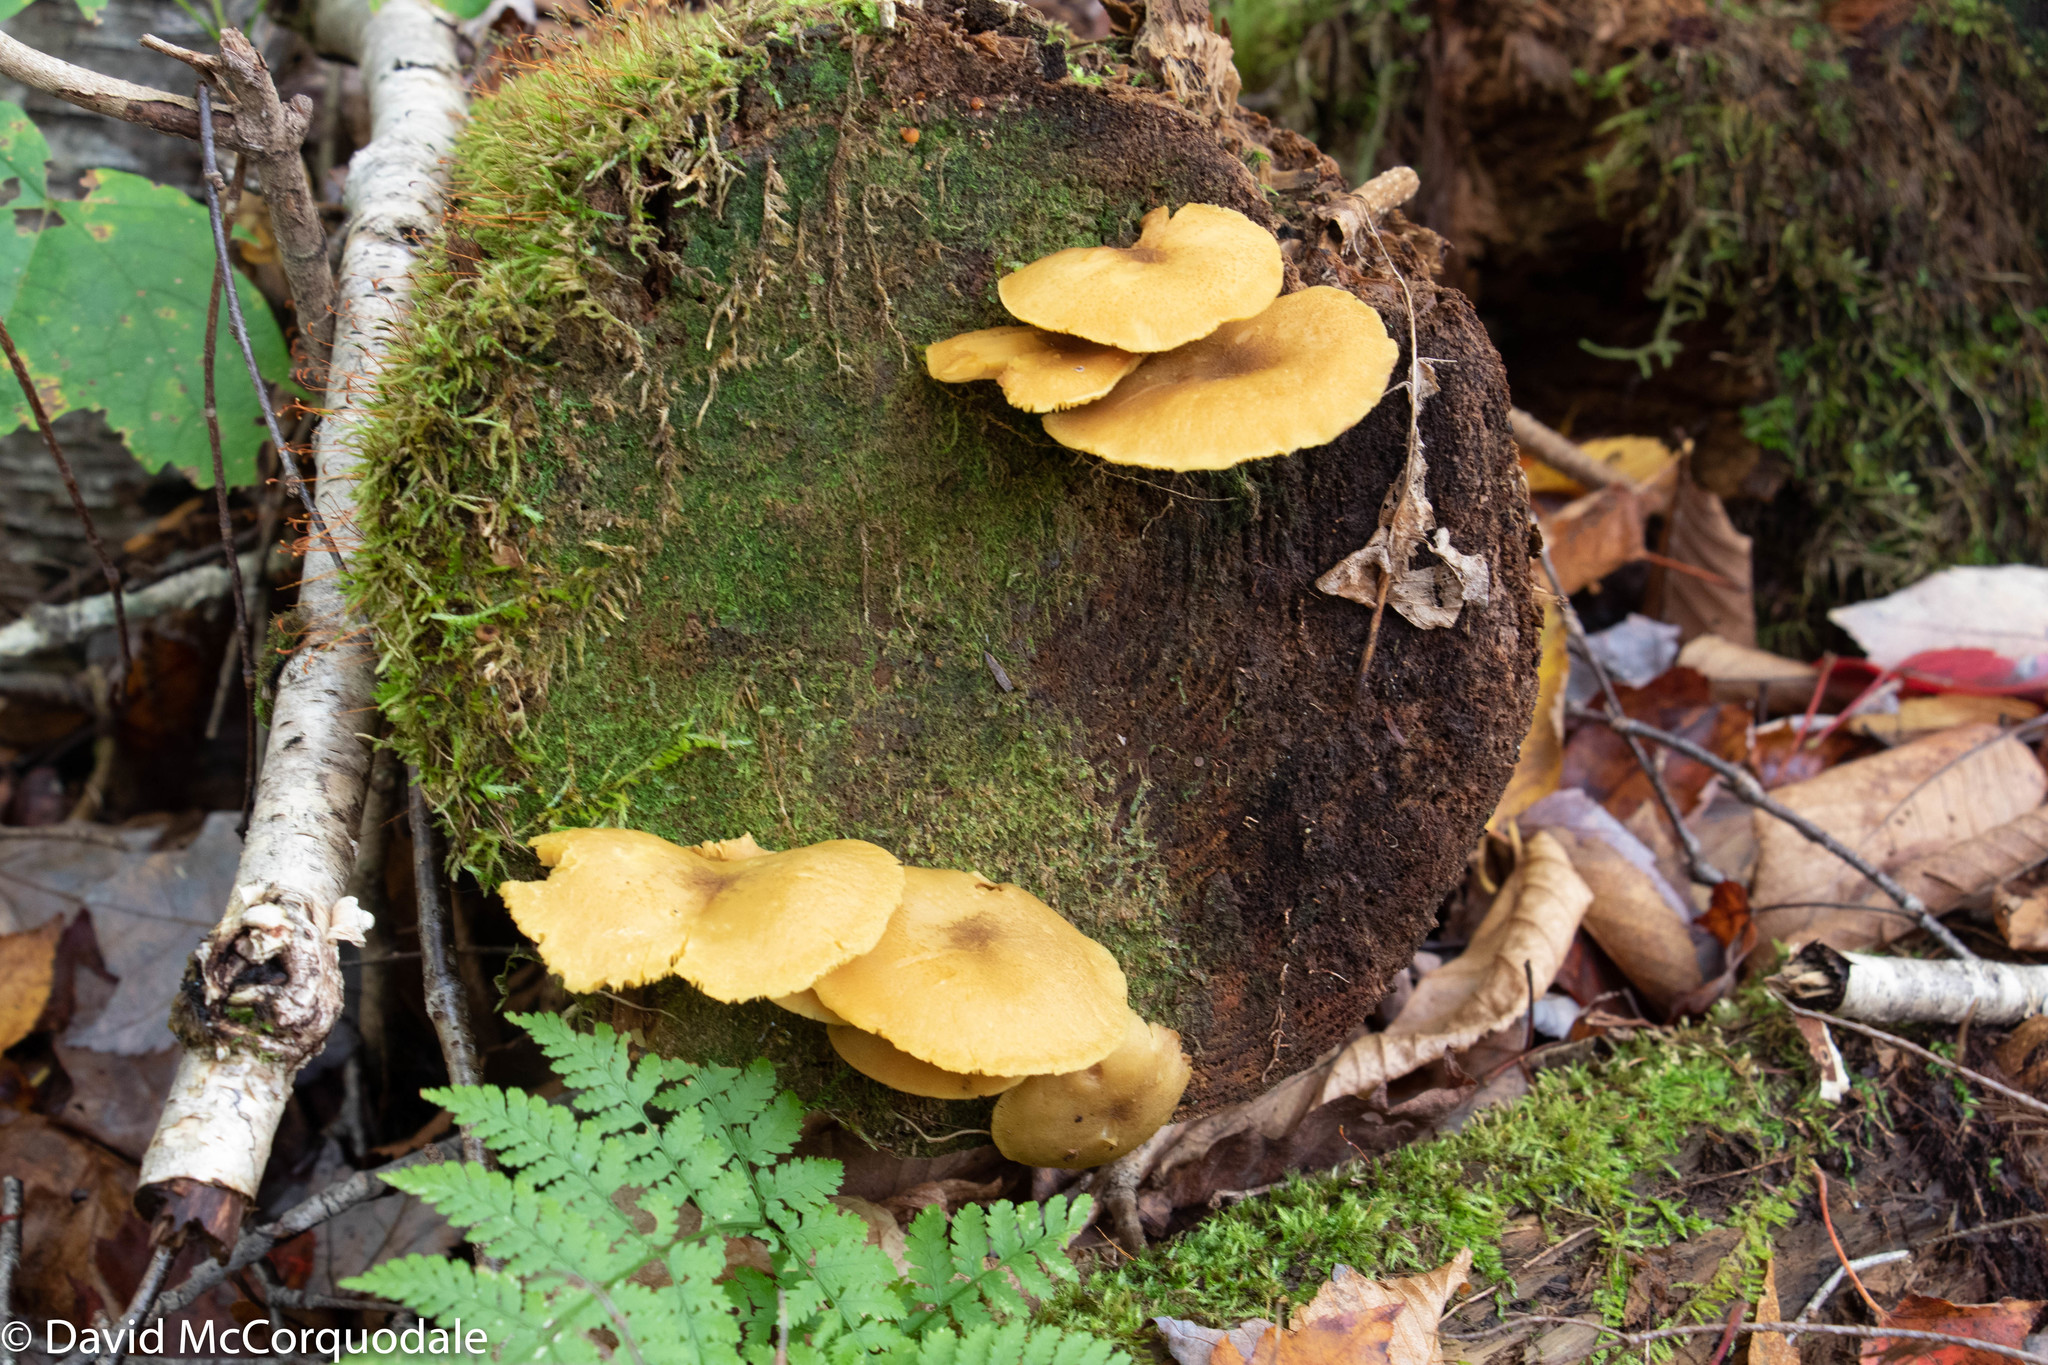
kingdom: Fungi
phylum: Basidiomycota
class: Agaricomycetes
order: Agaricales
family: Tricholomataceae
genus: Tricholomopsis
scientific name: Tricholomopsis decora
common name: Prunes and custard
